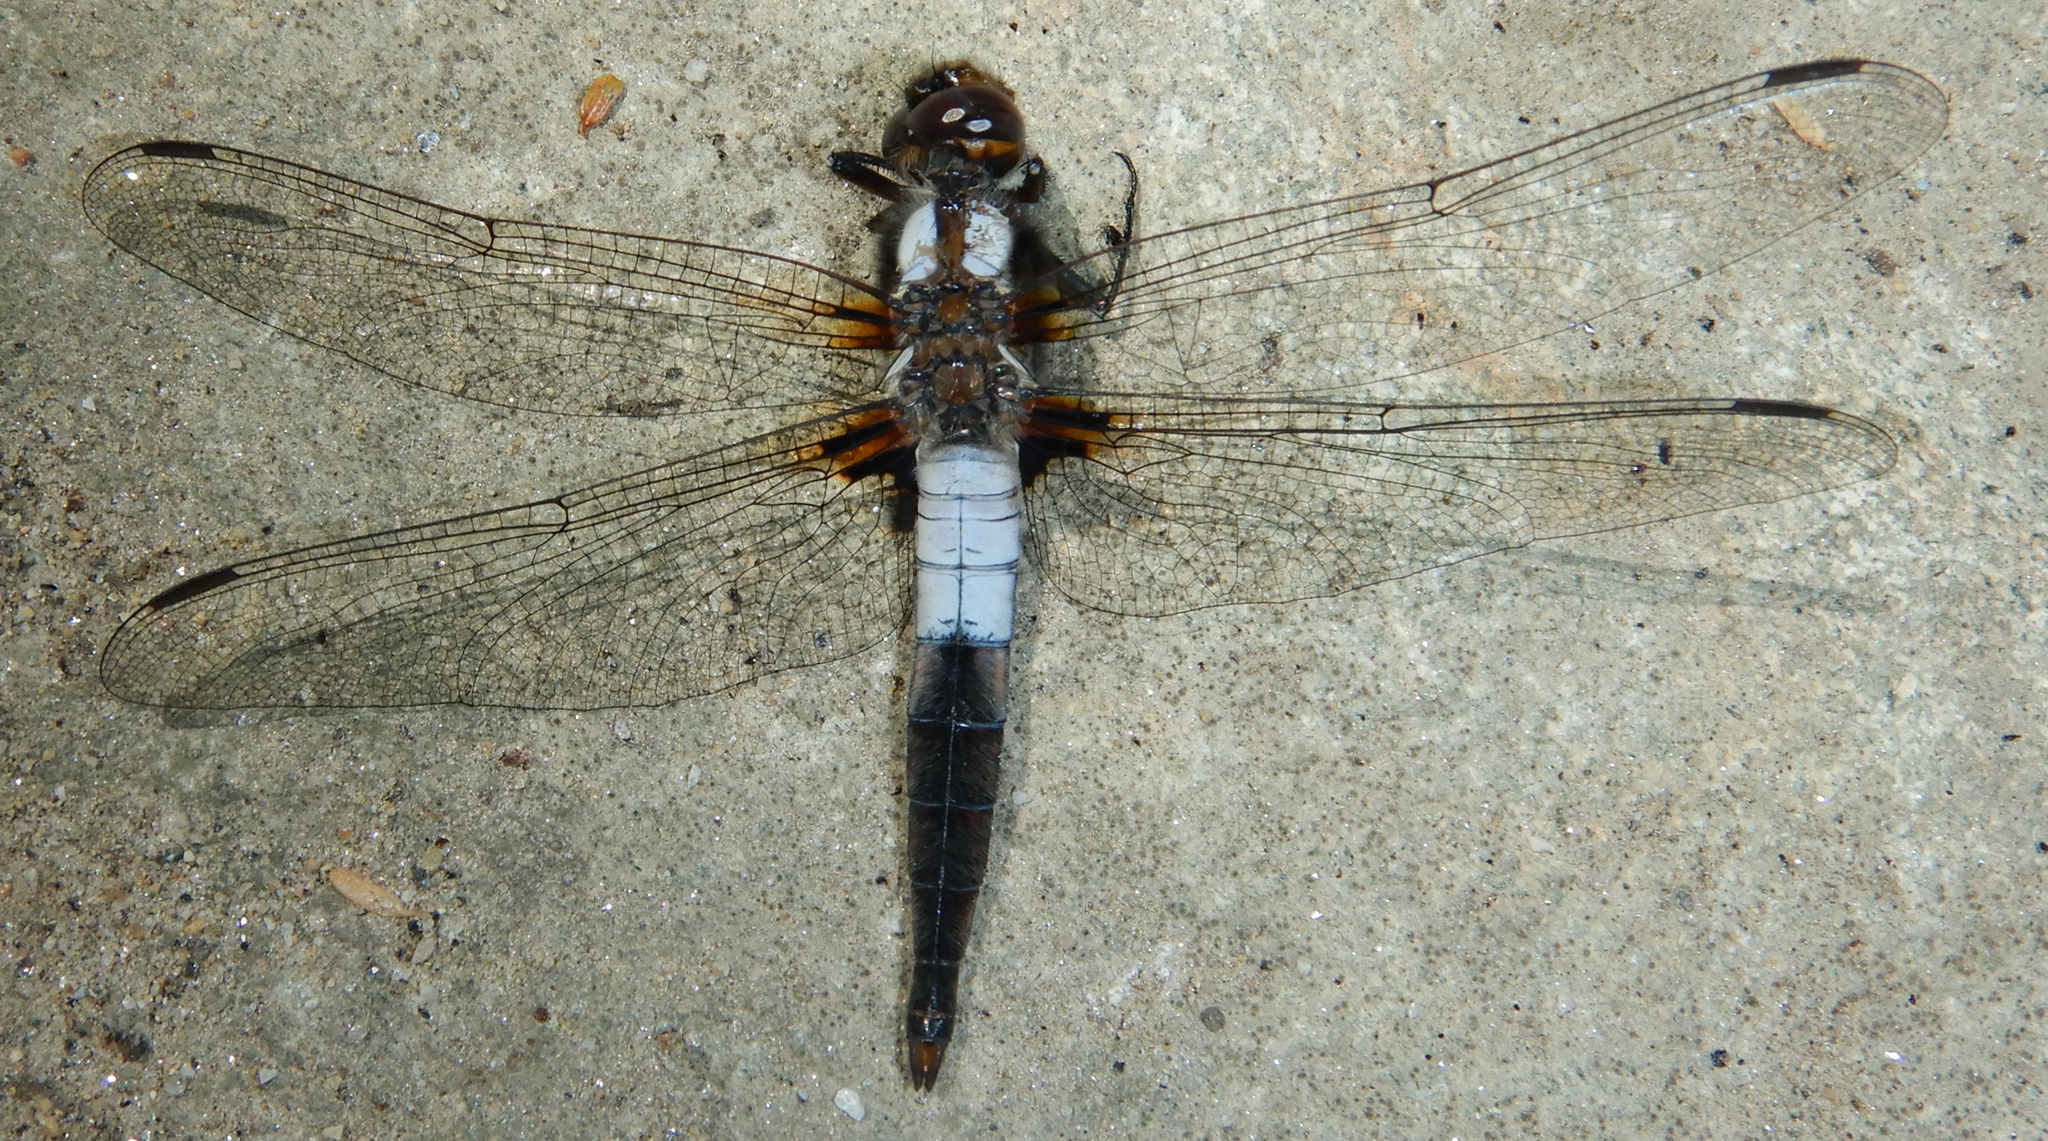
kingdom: Animalia
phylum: Arthropoda
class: Insecta
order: Odonata
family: Libellulidae
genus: Ladona
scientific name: Ladona julia
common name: Chalk-fronted corporal
